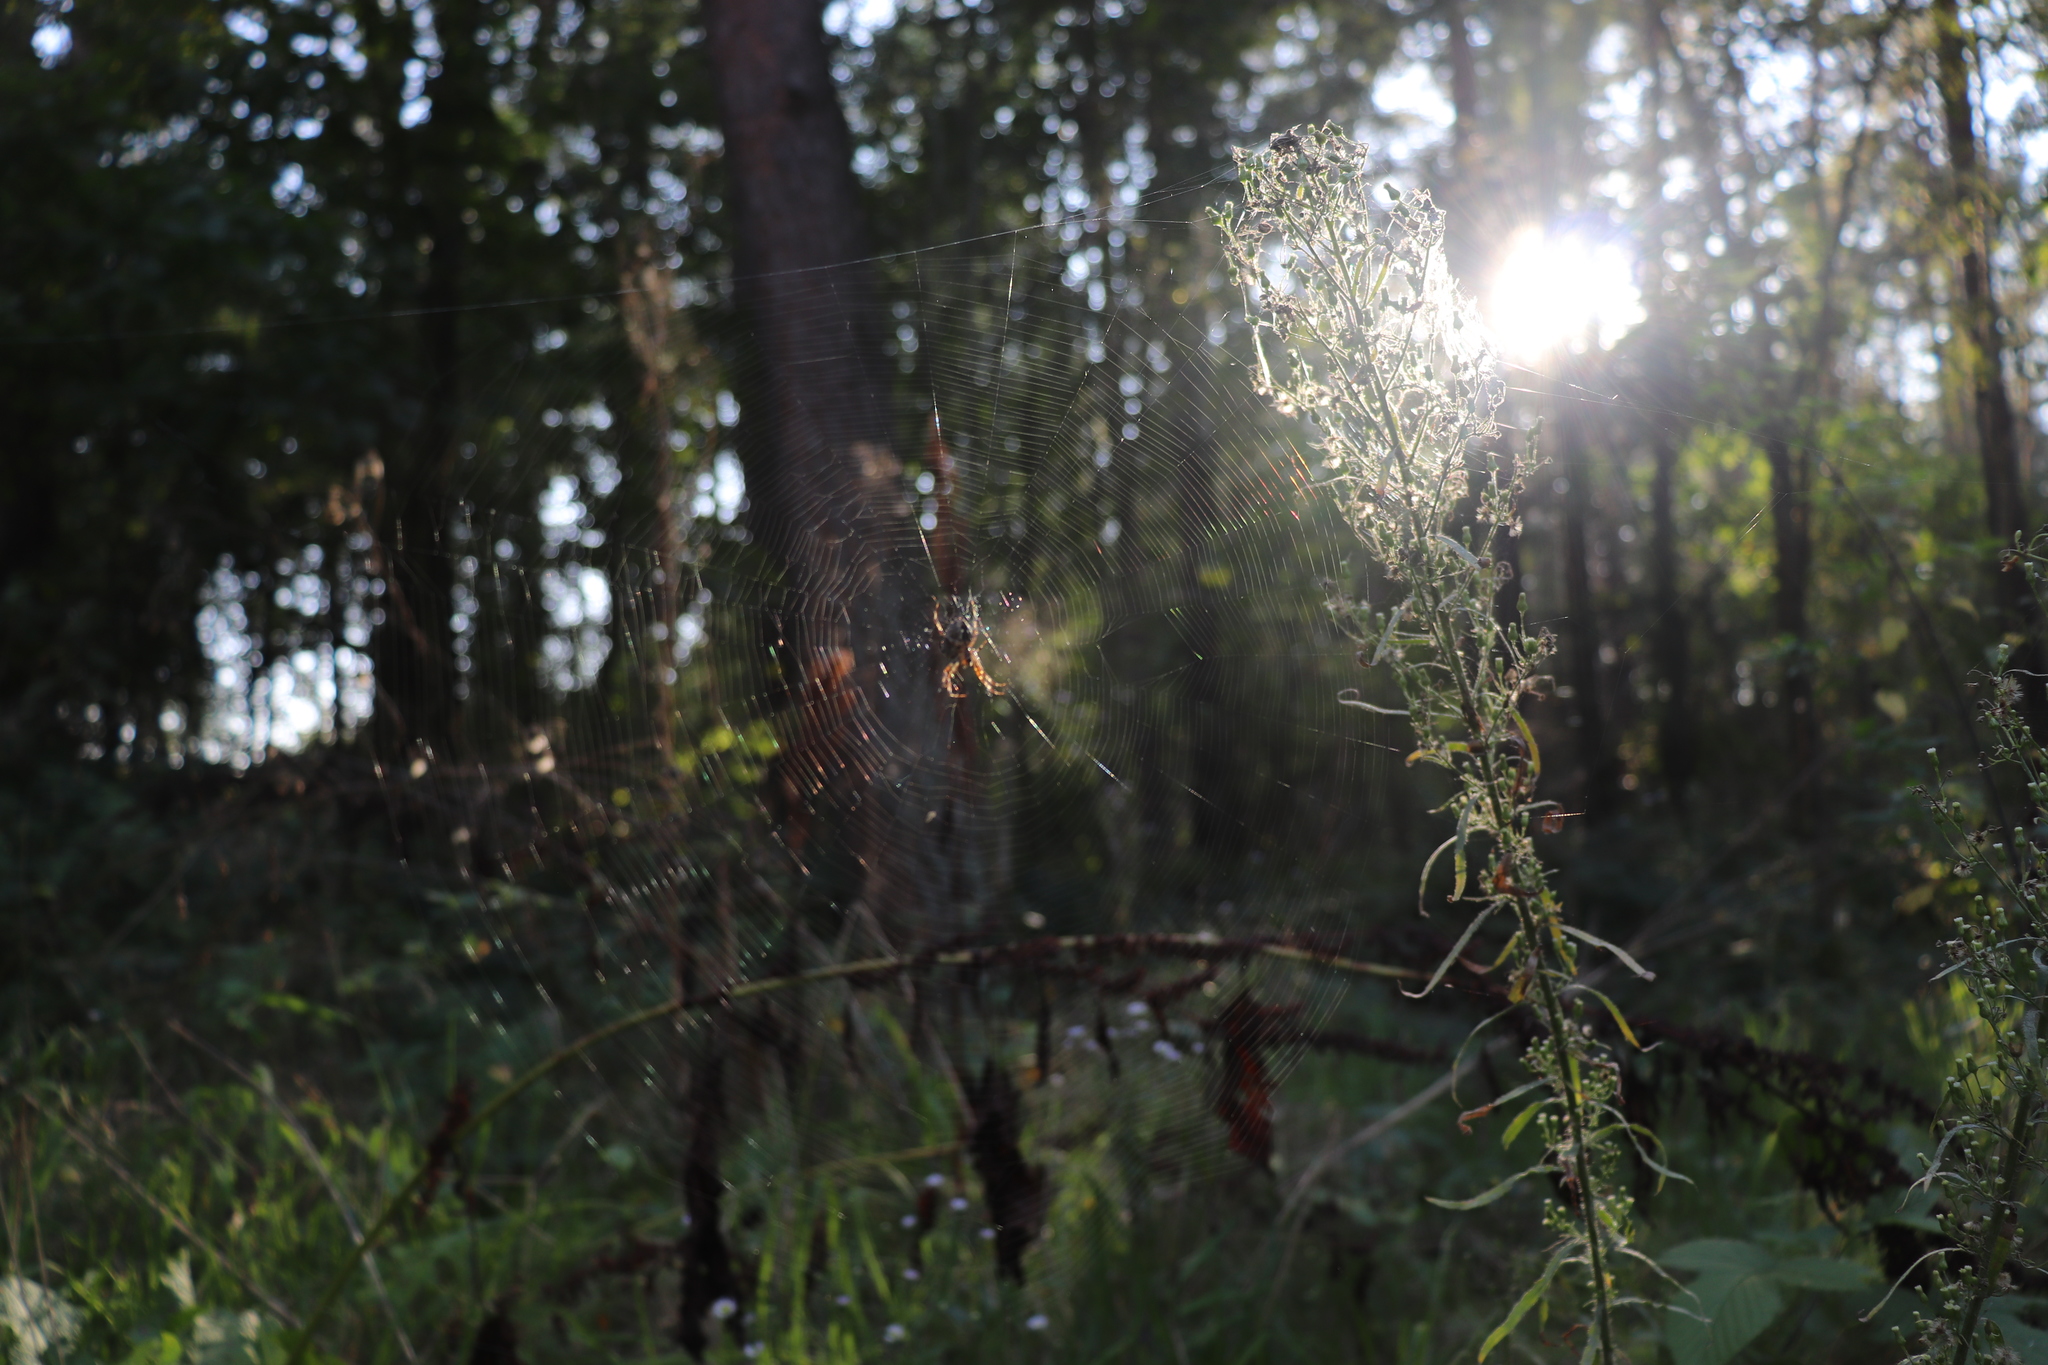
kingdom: Animalia
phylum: Arthropoda
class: Arachnida
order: Araneae
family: Araneidae
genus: Araneus
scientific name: Araneus diadematus
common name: Cross orbweaver
